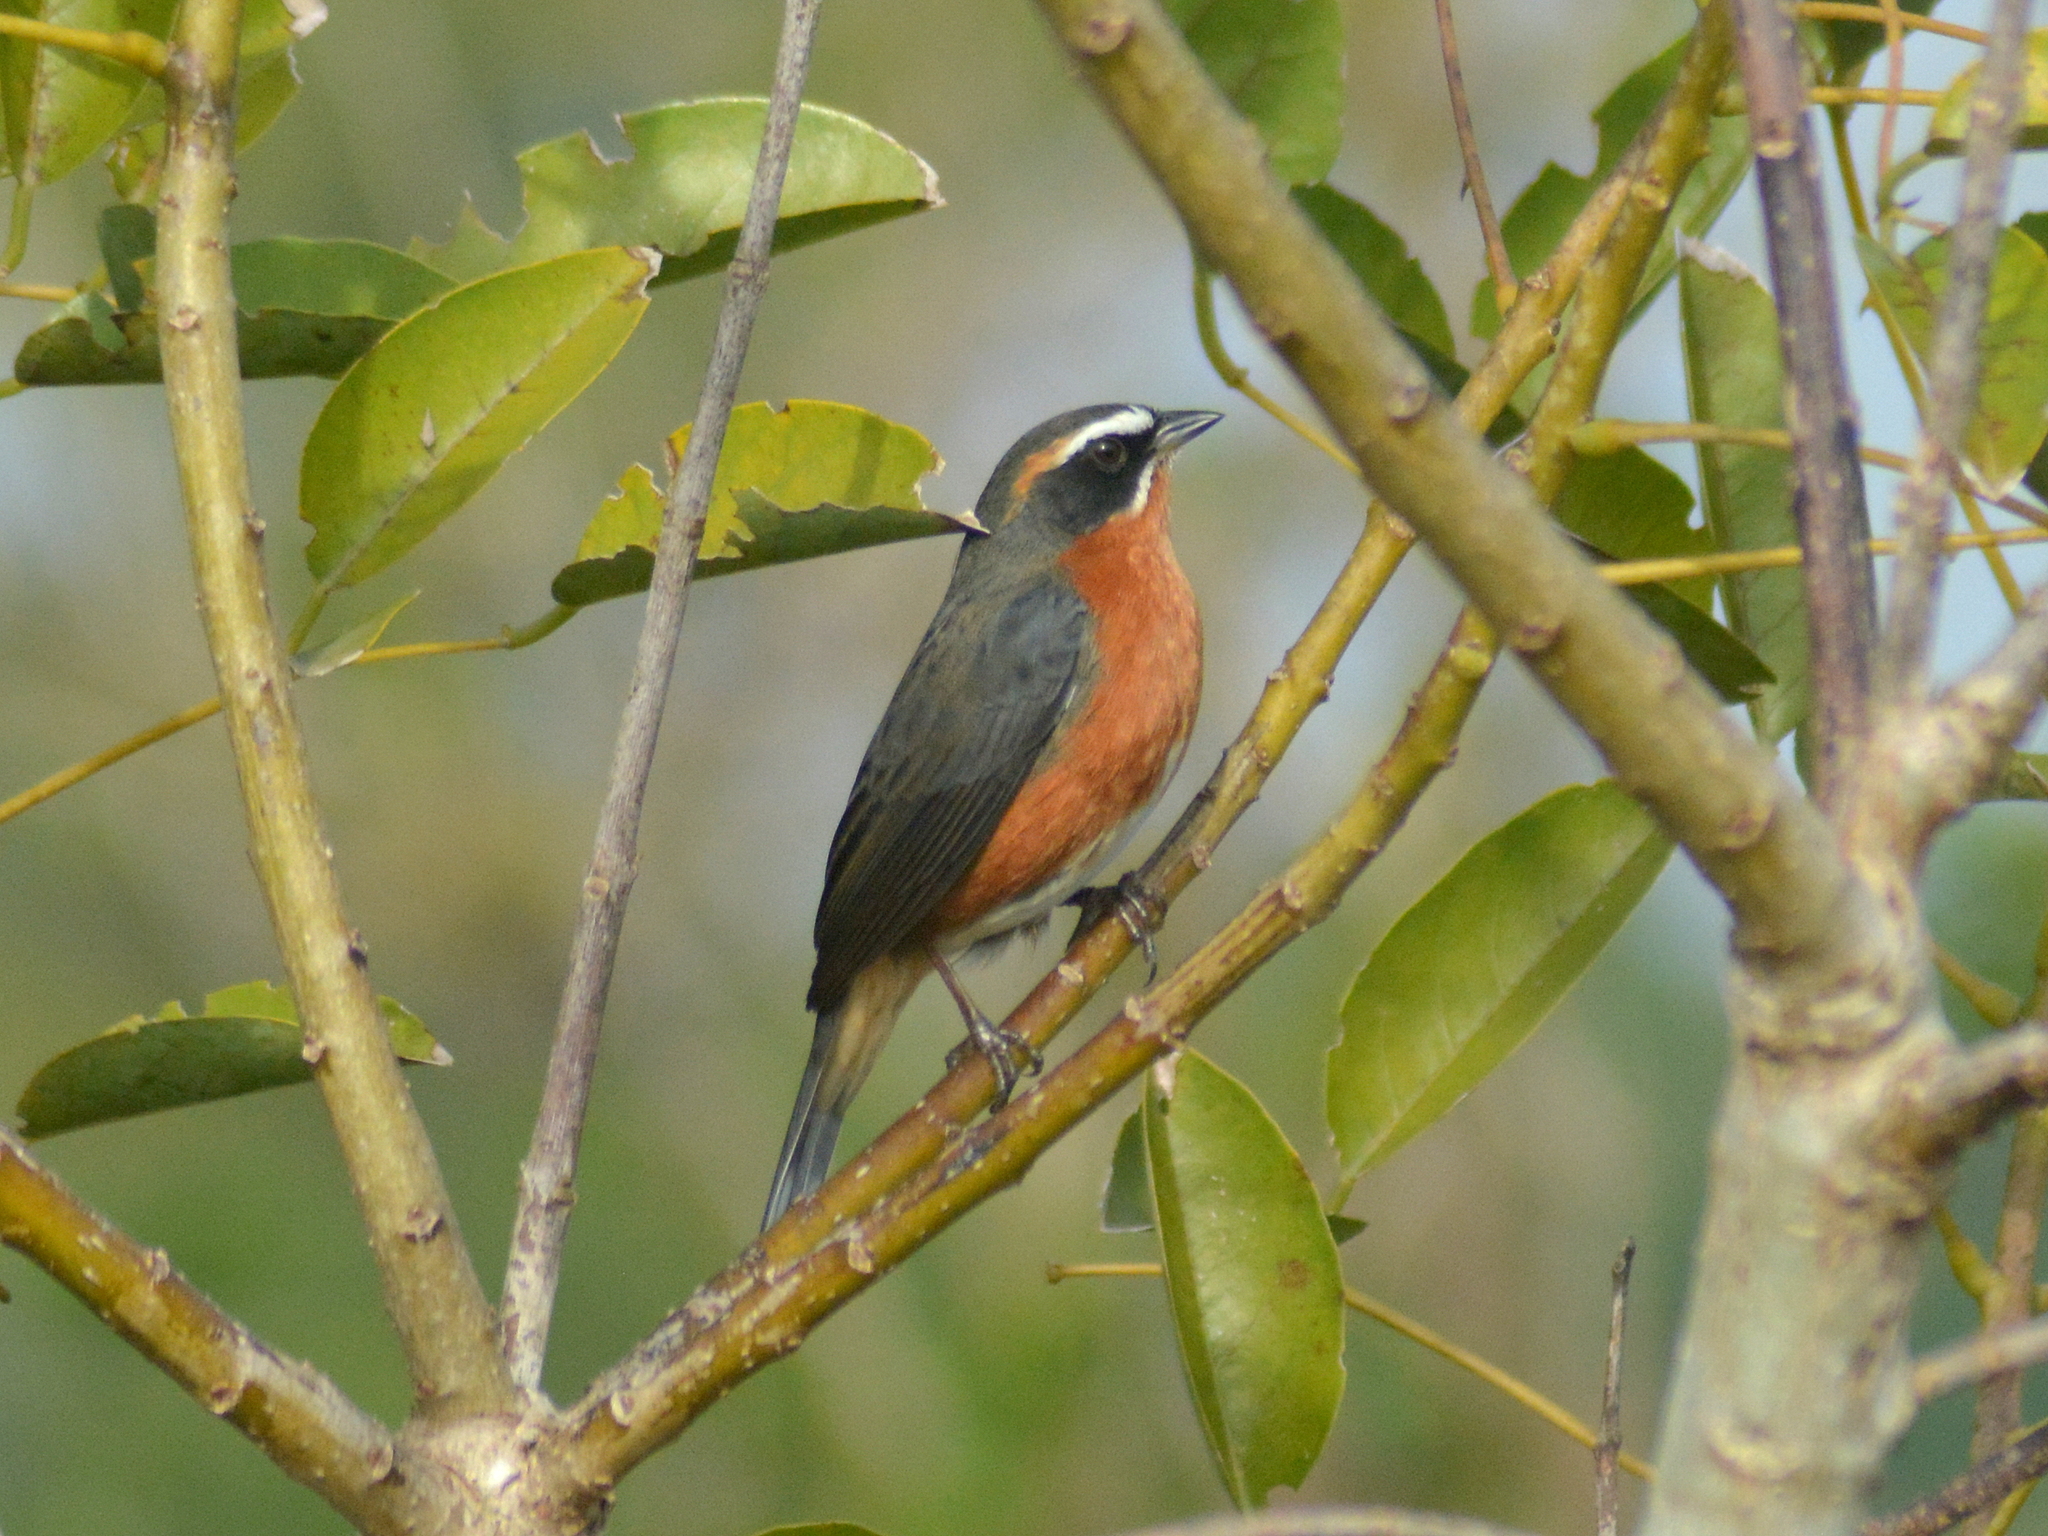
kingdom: Animalia
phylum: Chordata
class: Aves
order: Passeriformes
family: Thraupidae
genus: Poospiza
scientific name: Poospiza nigrorufa
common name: Black-and-rufous warbling finch
